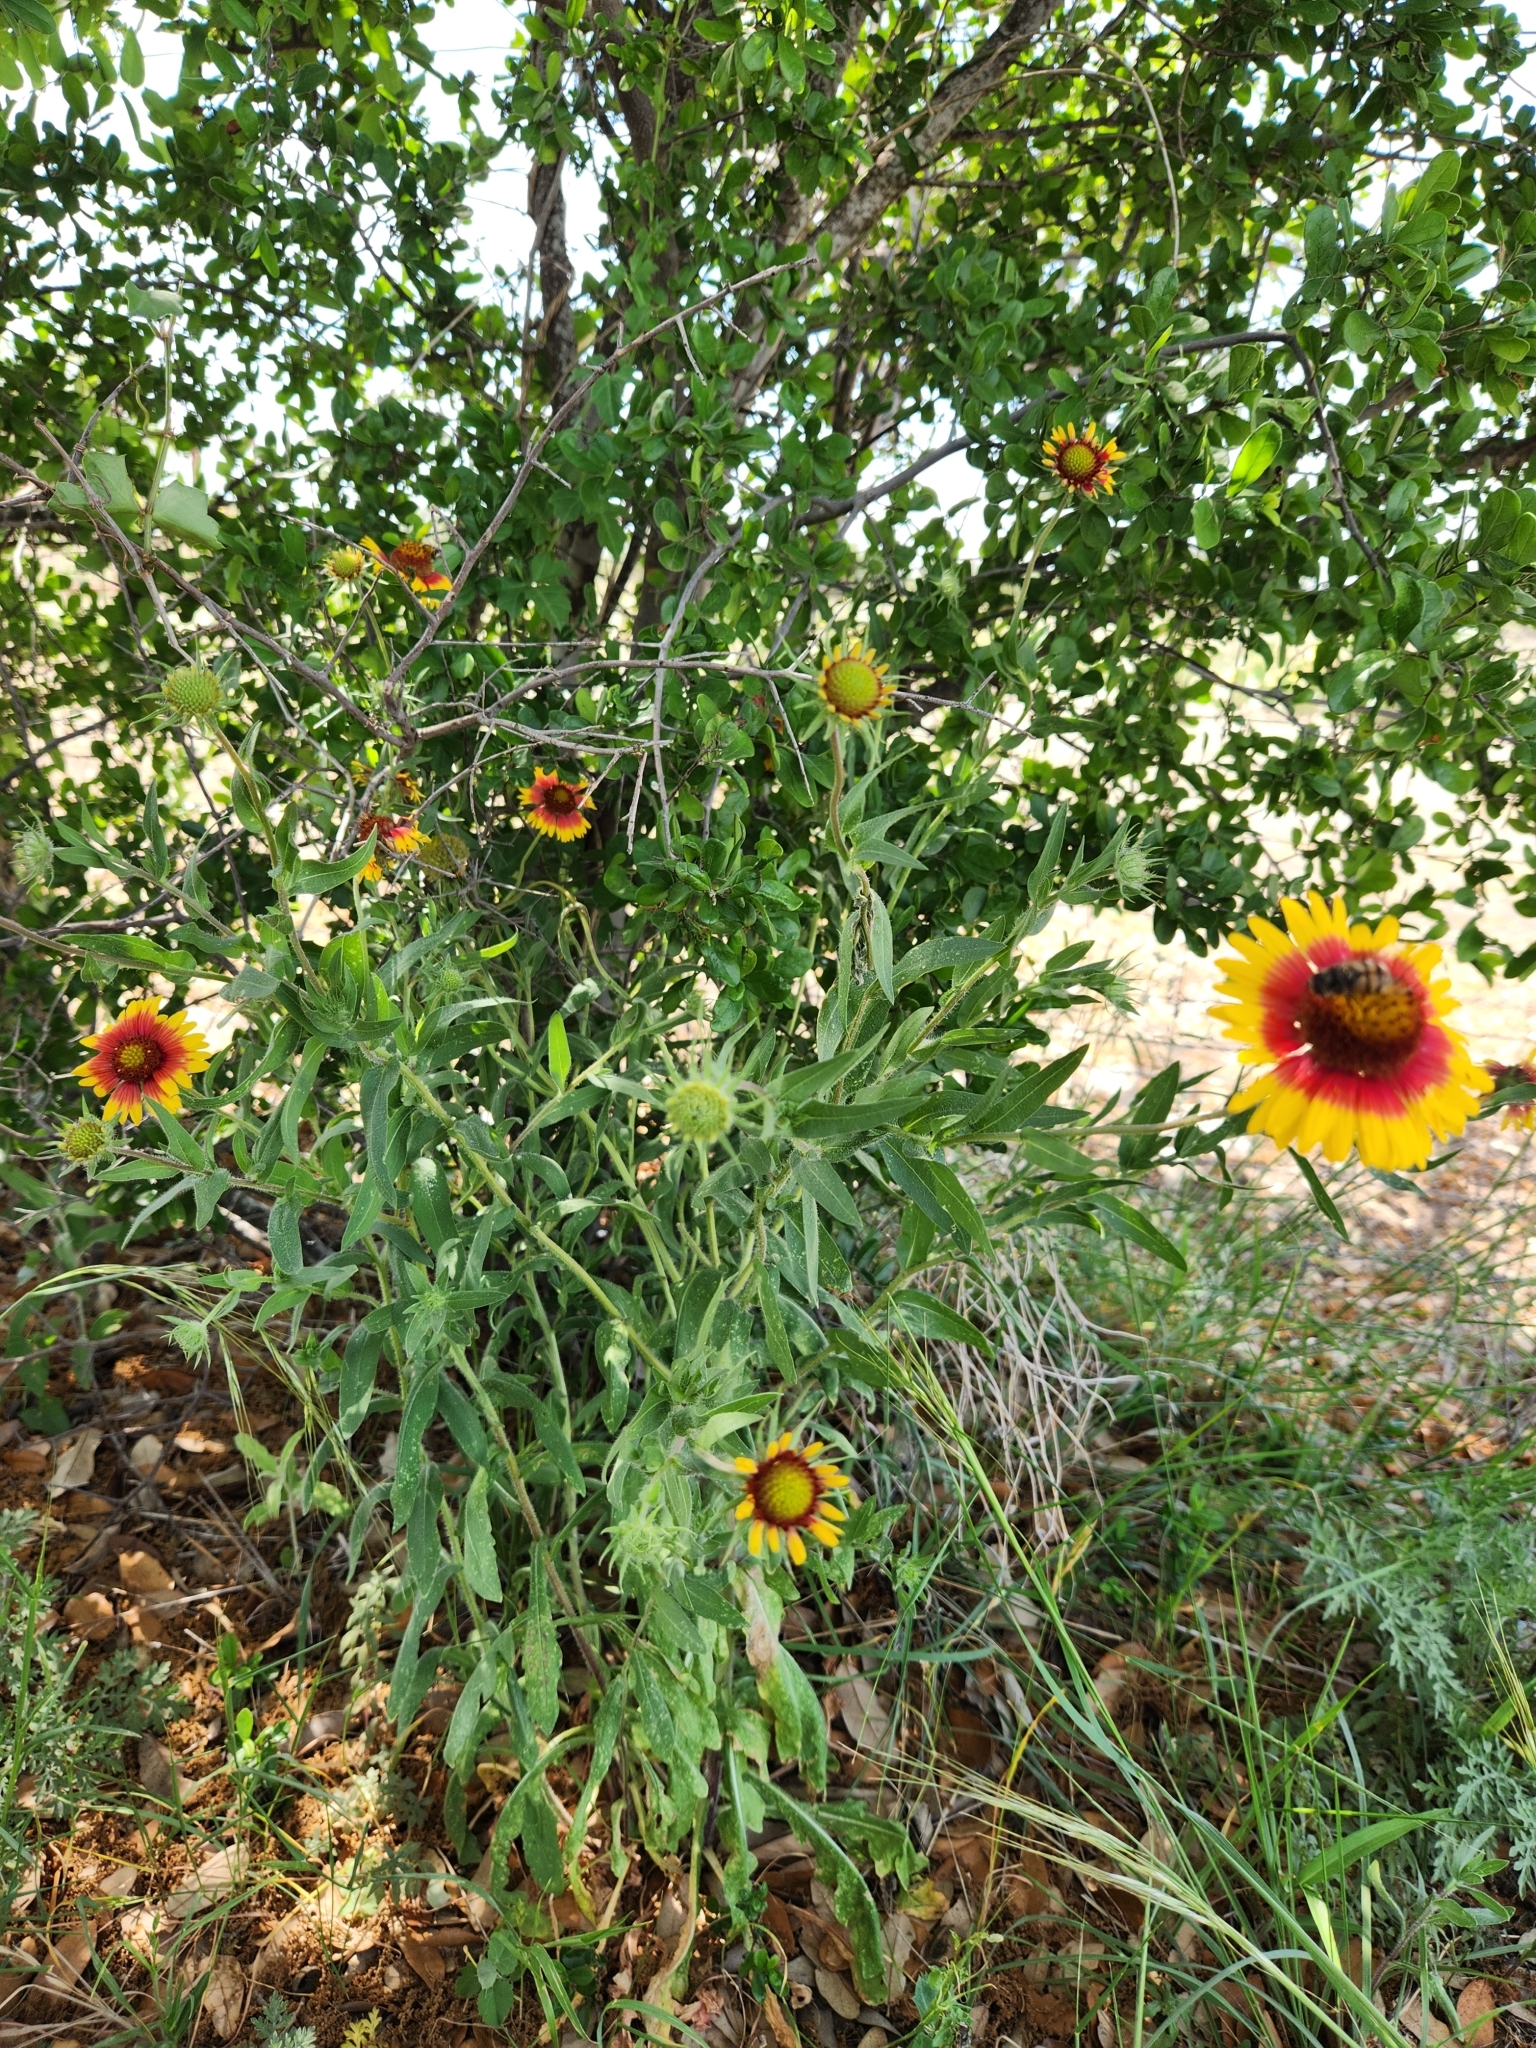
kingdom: Plantae
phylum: Tracheophyta
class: Magnoliopsida
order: Asterales
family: Asteraceae
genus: Gaillardia
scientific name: Gaillardia pulchella
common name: Firewheel
